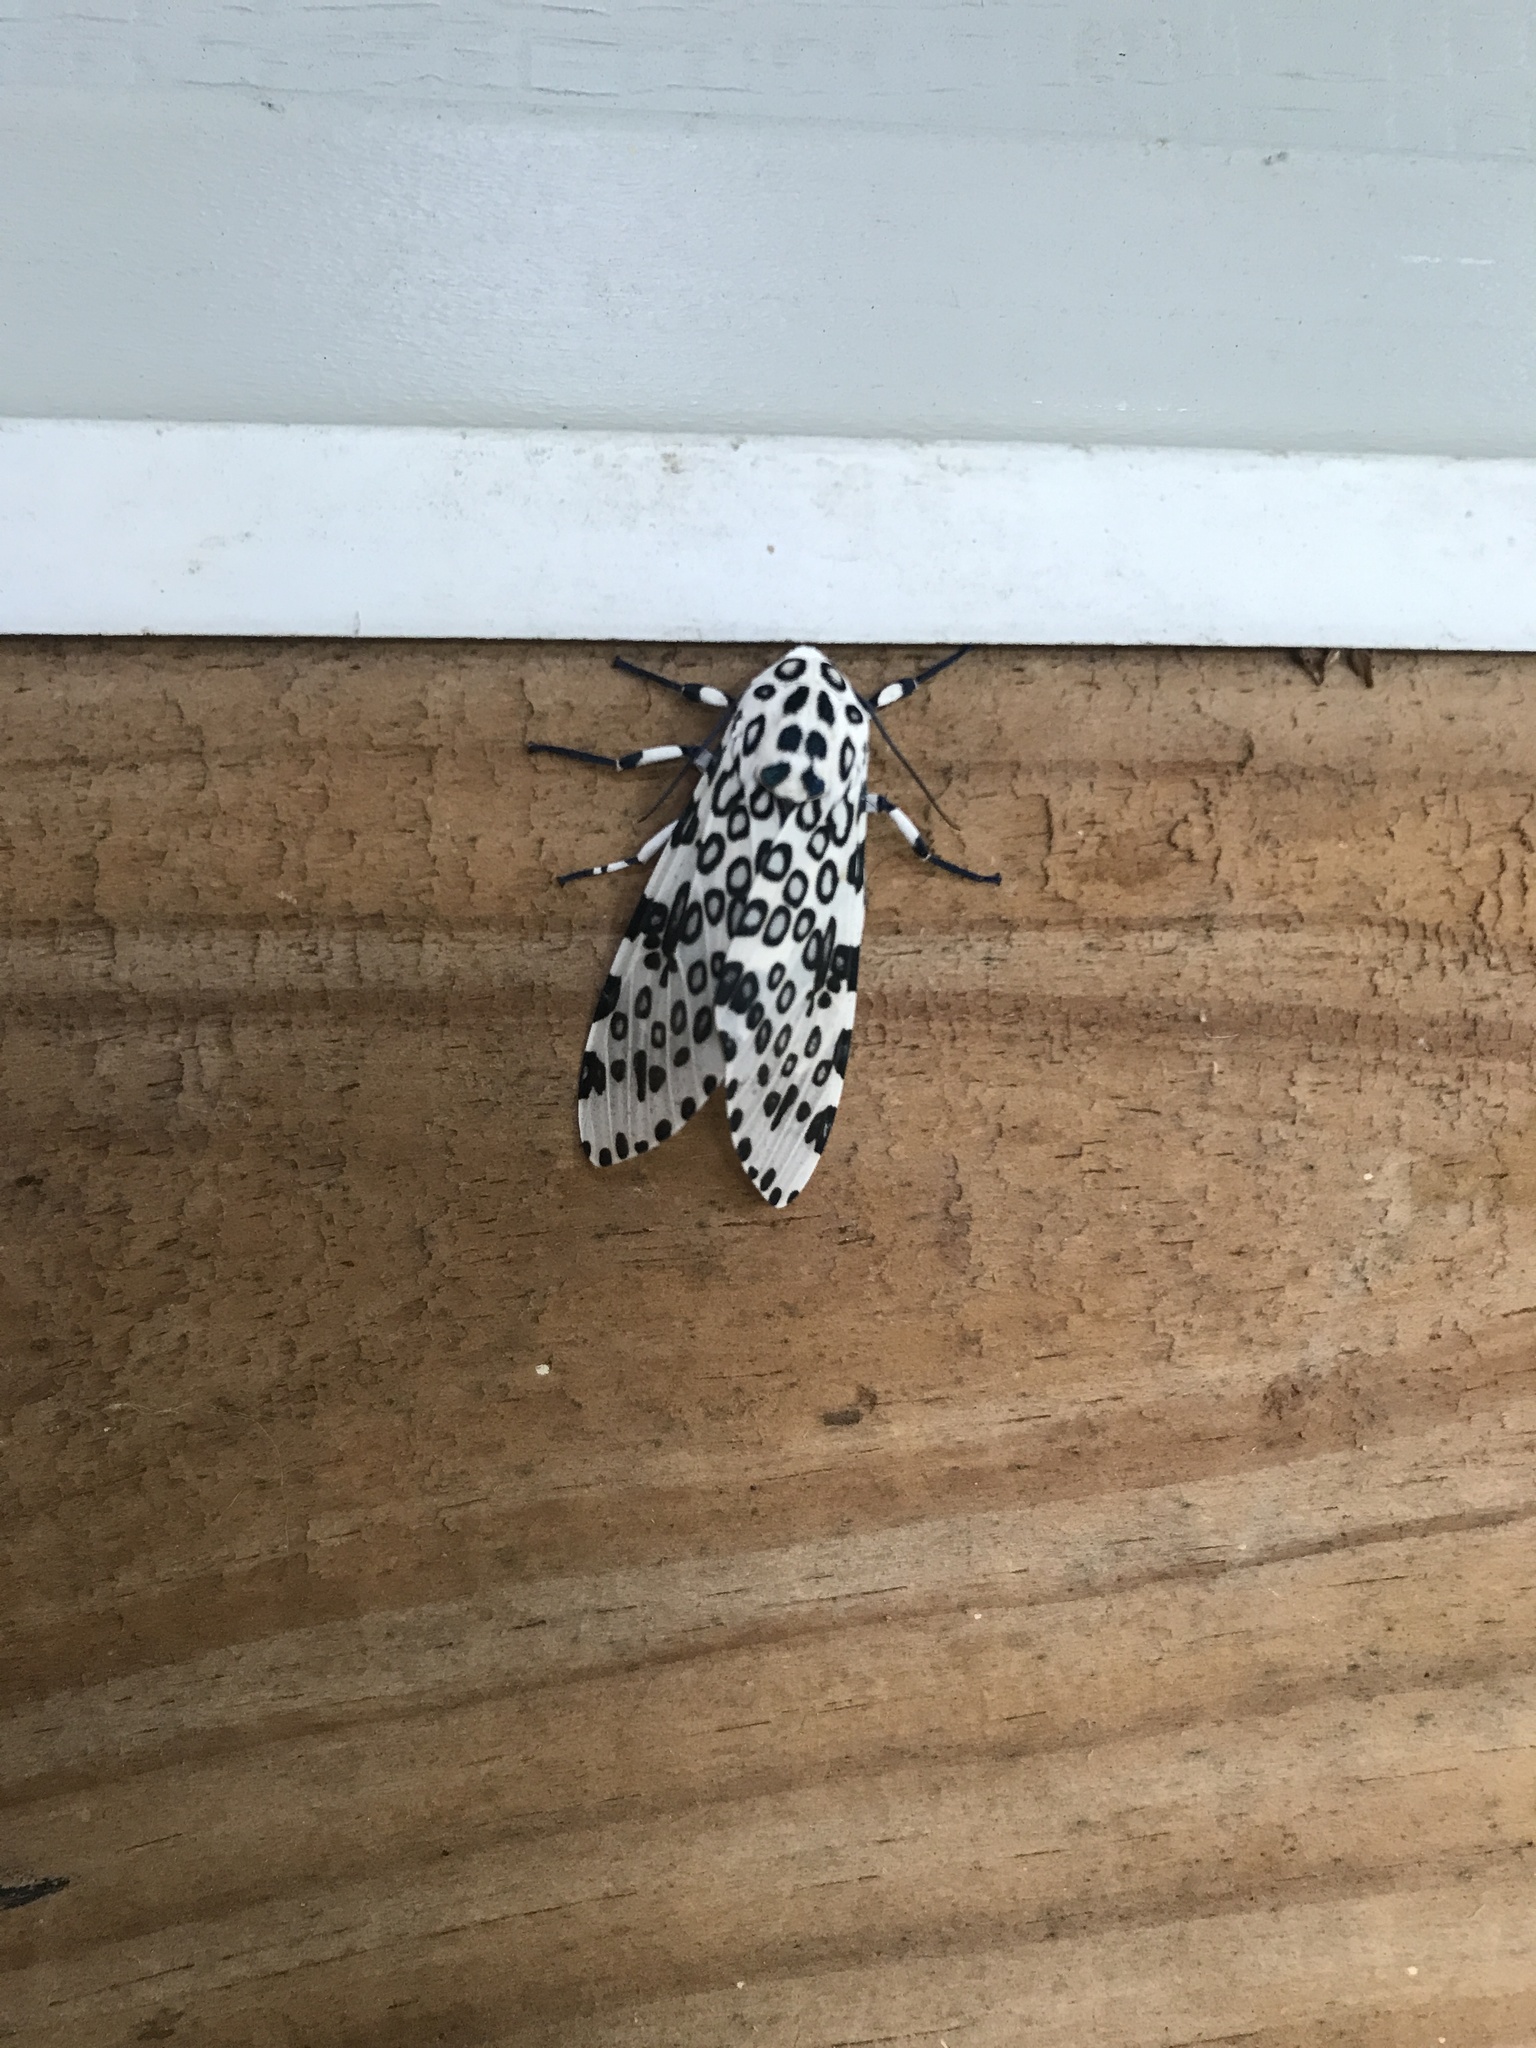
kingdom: Animalia
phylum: Arthropoda
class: Insecta
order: Lepidoptera
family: Erebidae
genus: Hypercompe
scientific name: Hypercompe scribonia
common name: Giant leopard moth
